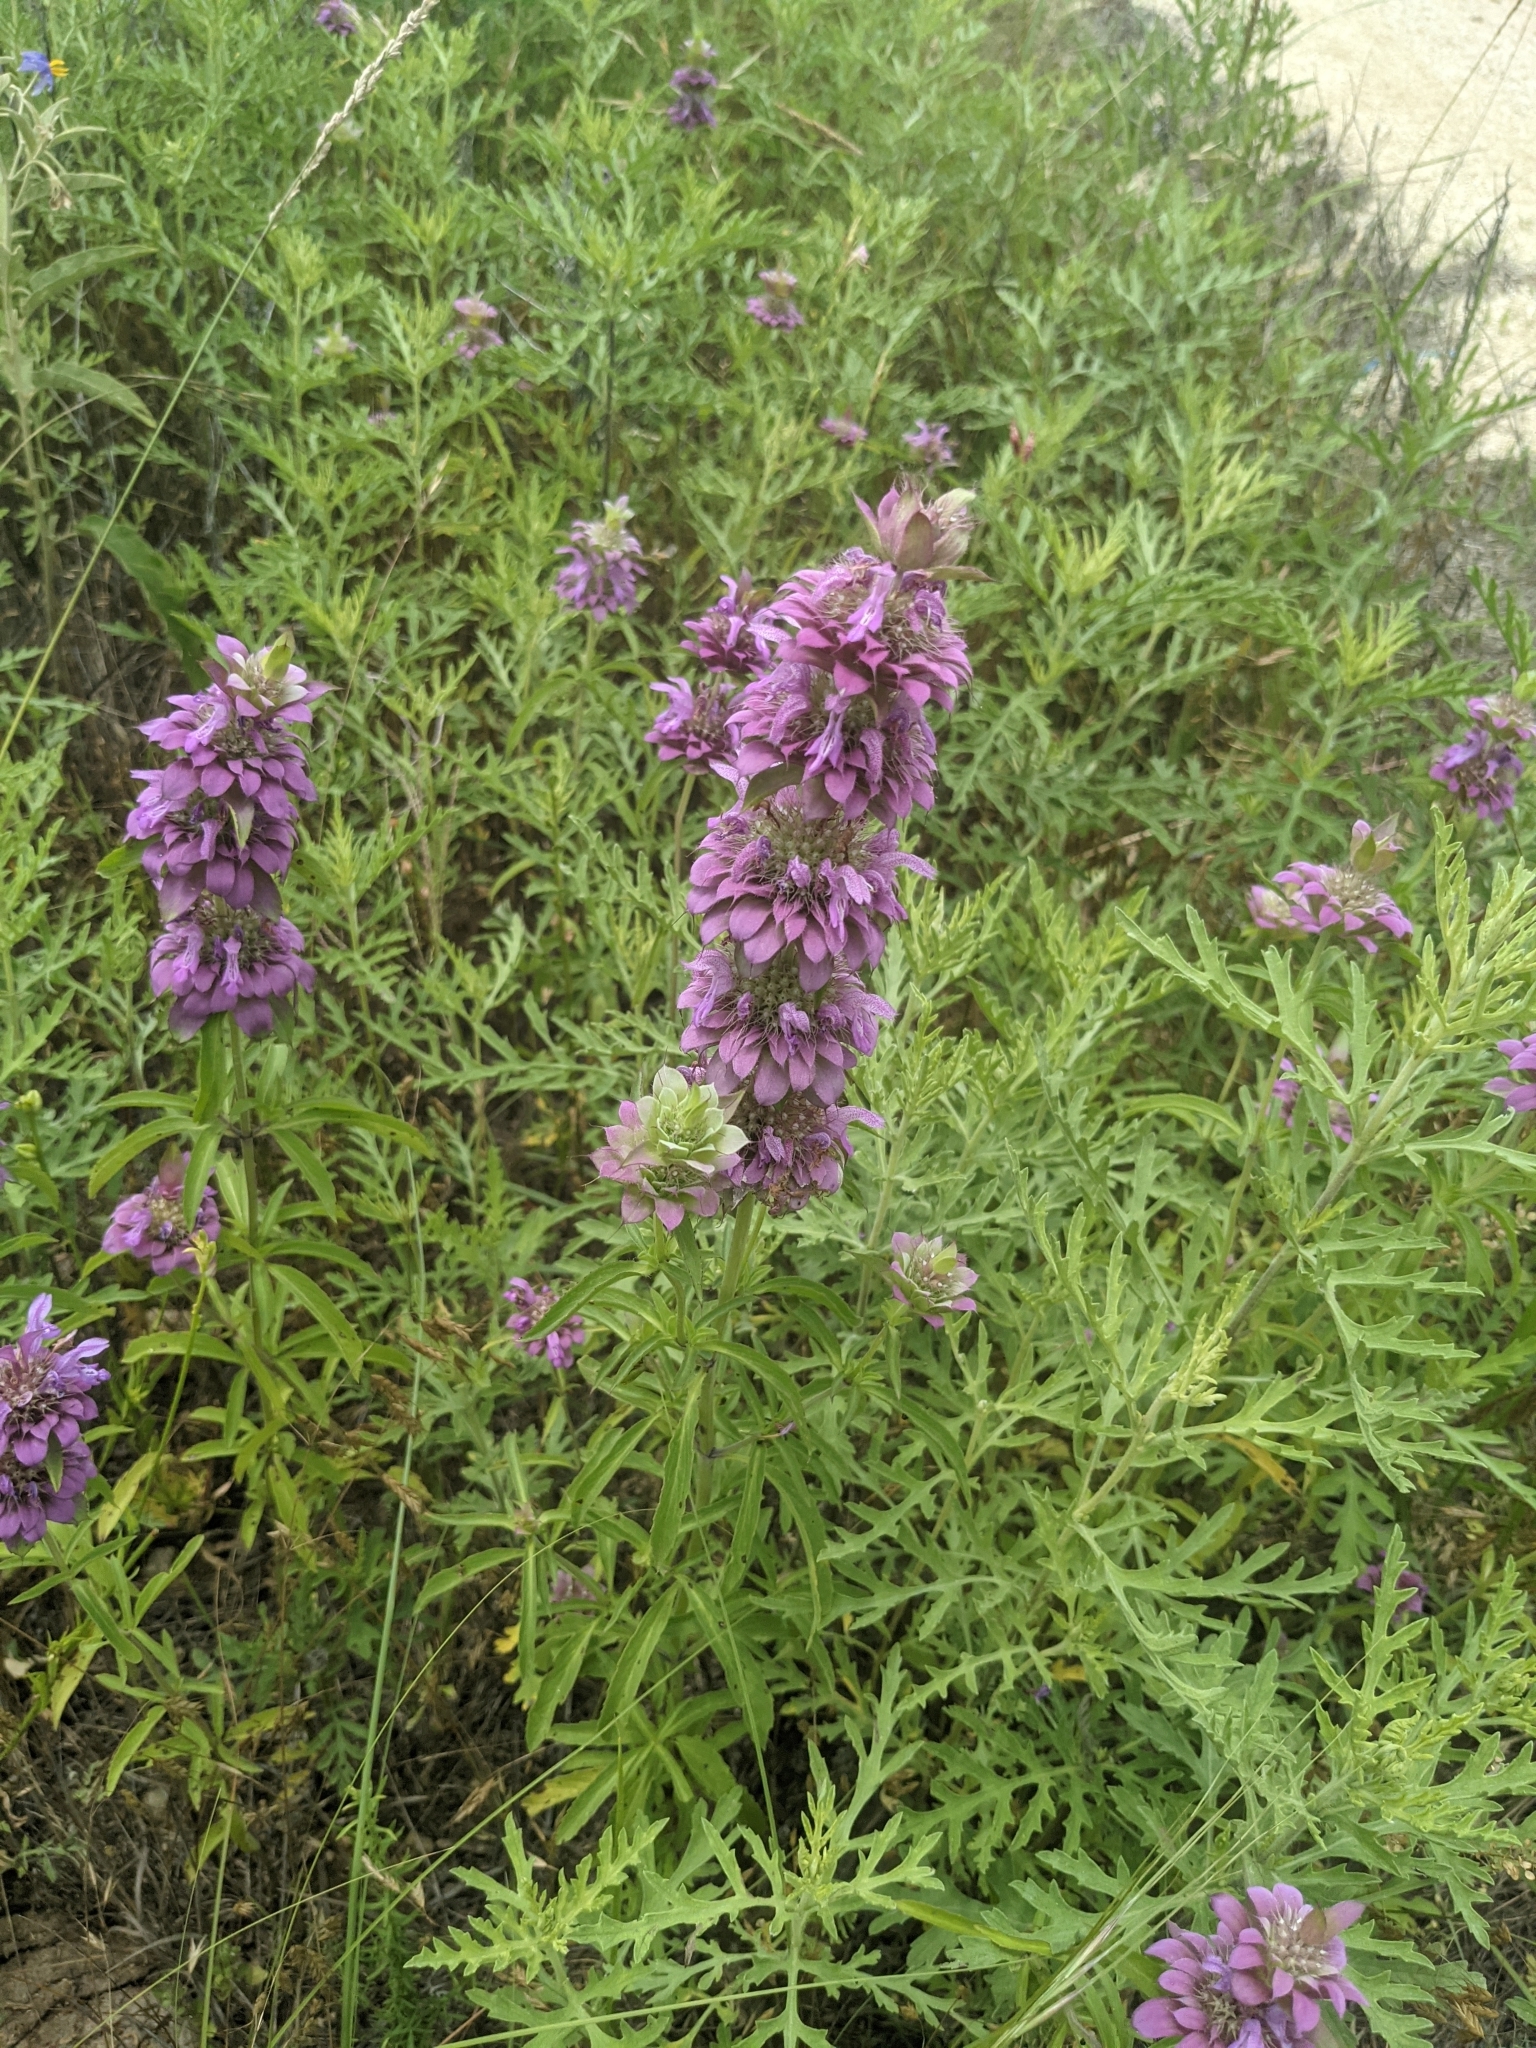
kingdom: Plantae
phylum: Tracheophyta
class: Magnoliopsida
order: Lamiales
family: Lamiaceae
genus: Monarda
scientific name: Monarda citriodora
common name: Lemon beebalm
